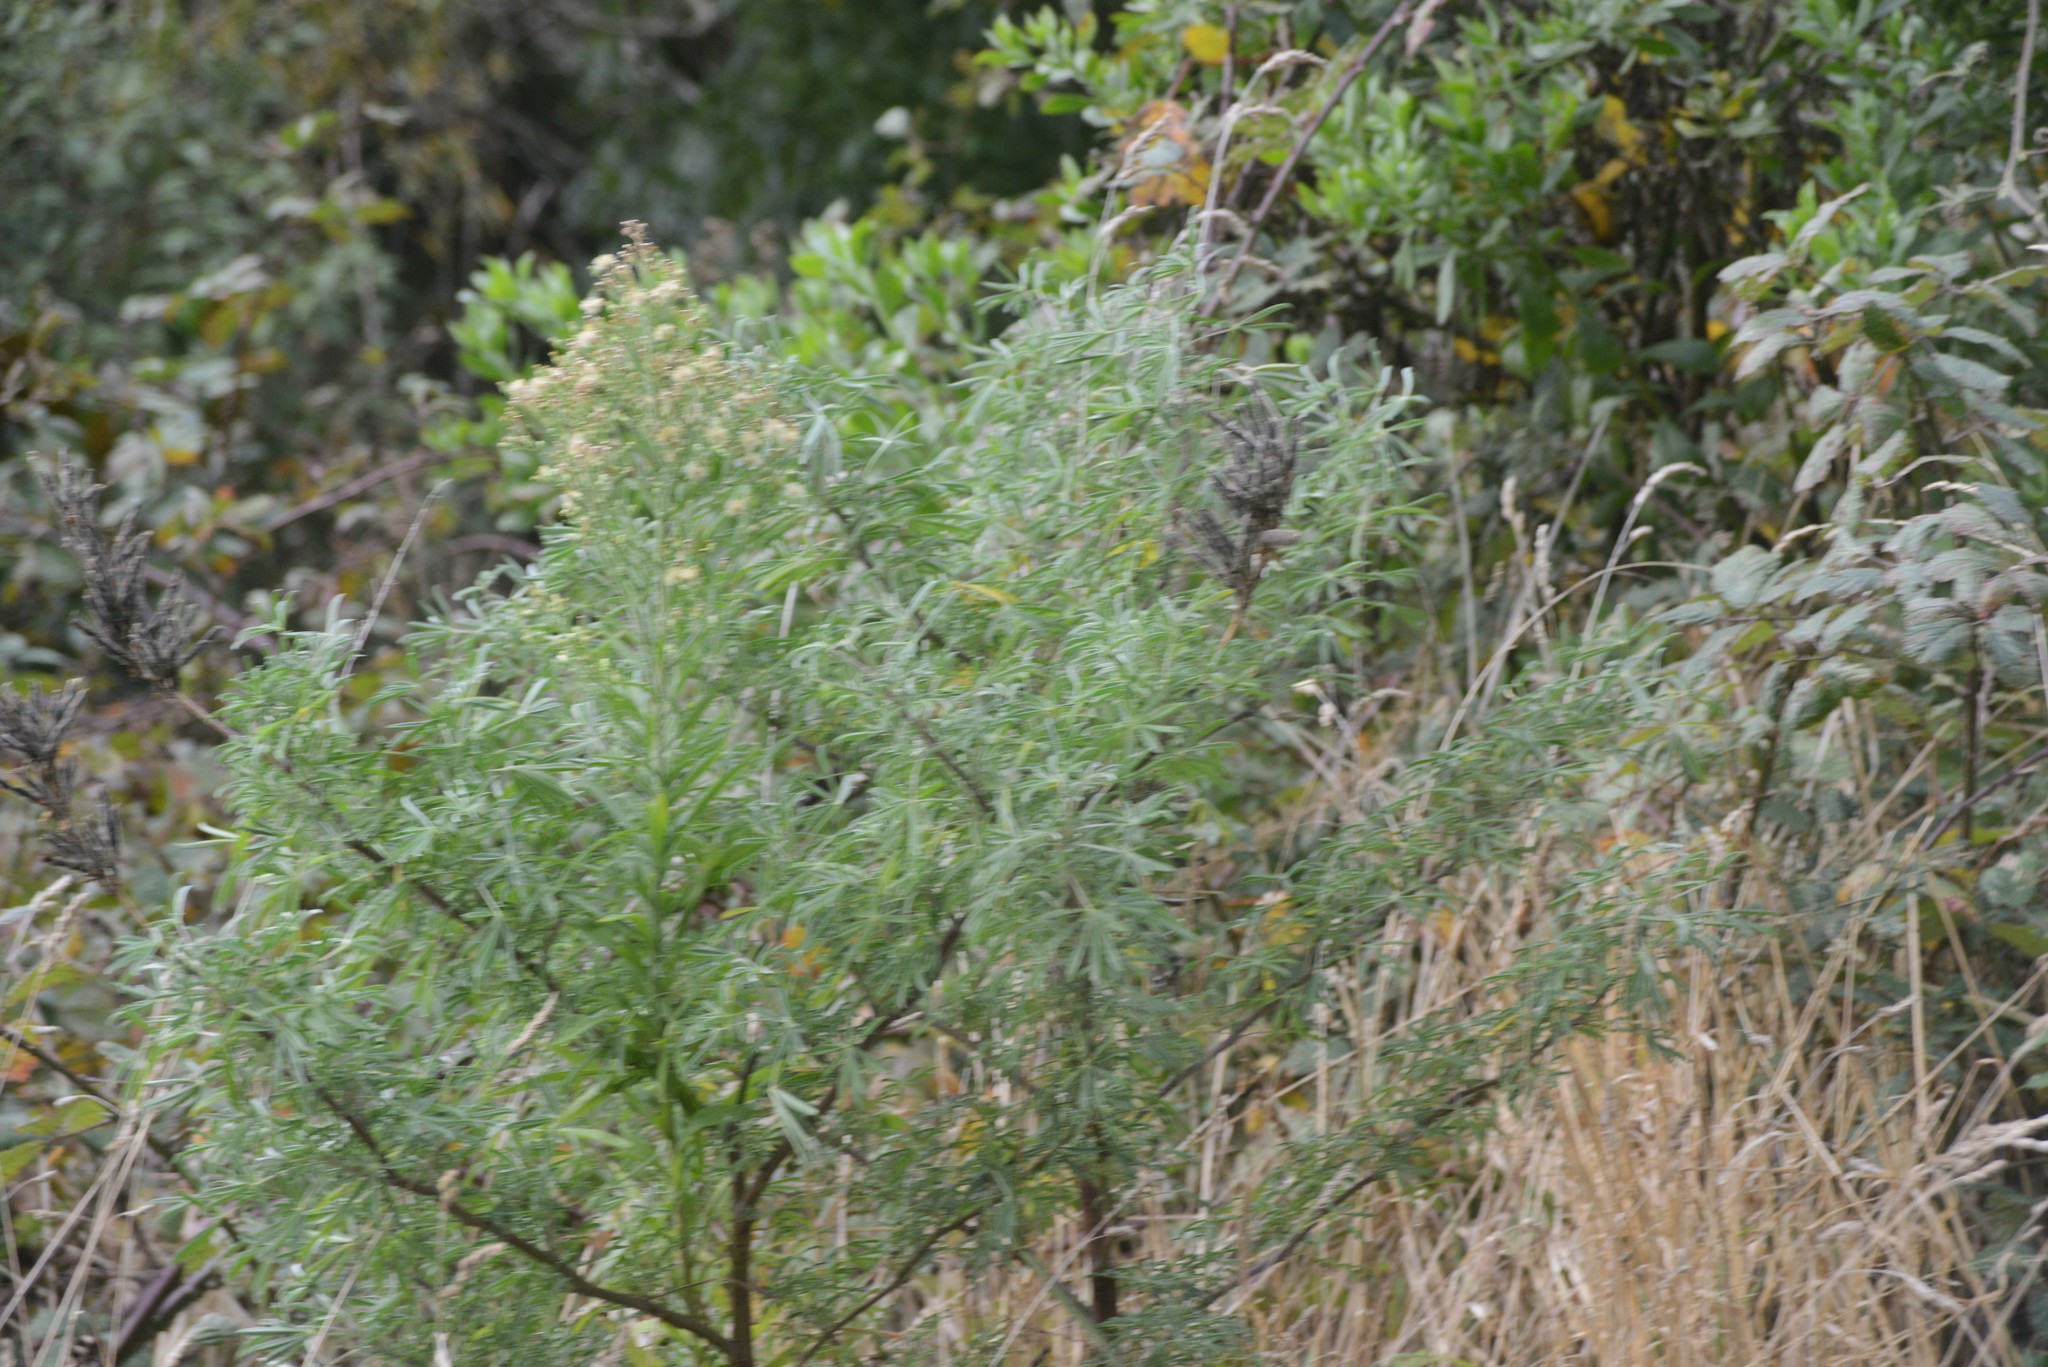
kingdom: Plantae
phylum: Tracheophyta
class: Magnoliopsida
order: Fabales
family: Fabaceae
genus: Lupinus
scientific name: Lupinus arboreus
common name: Yellow bush lupine
